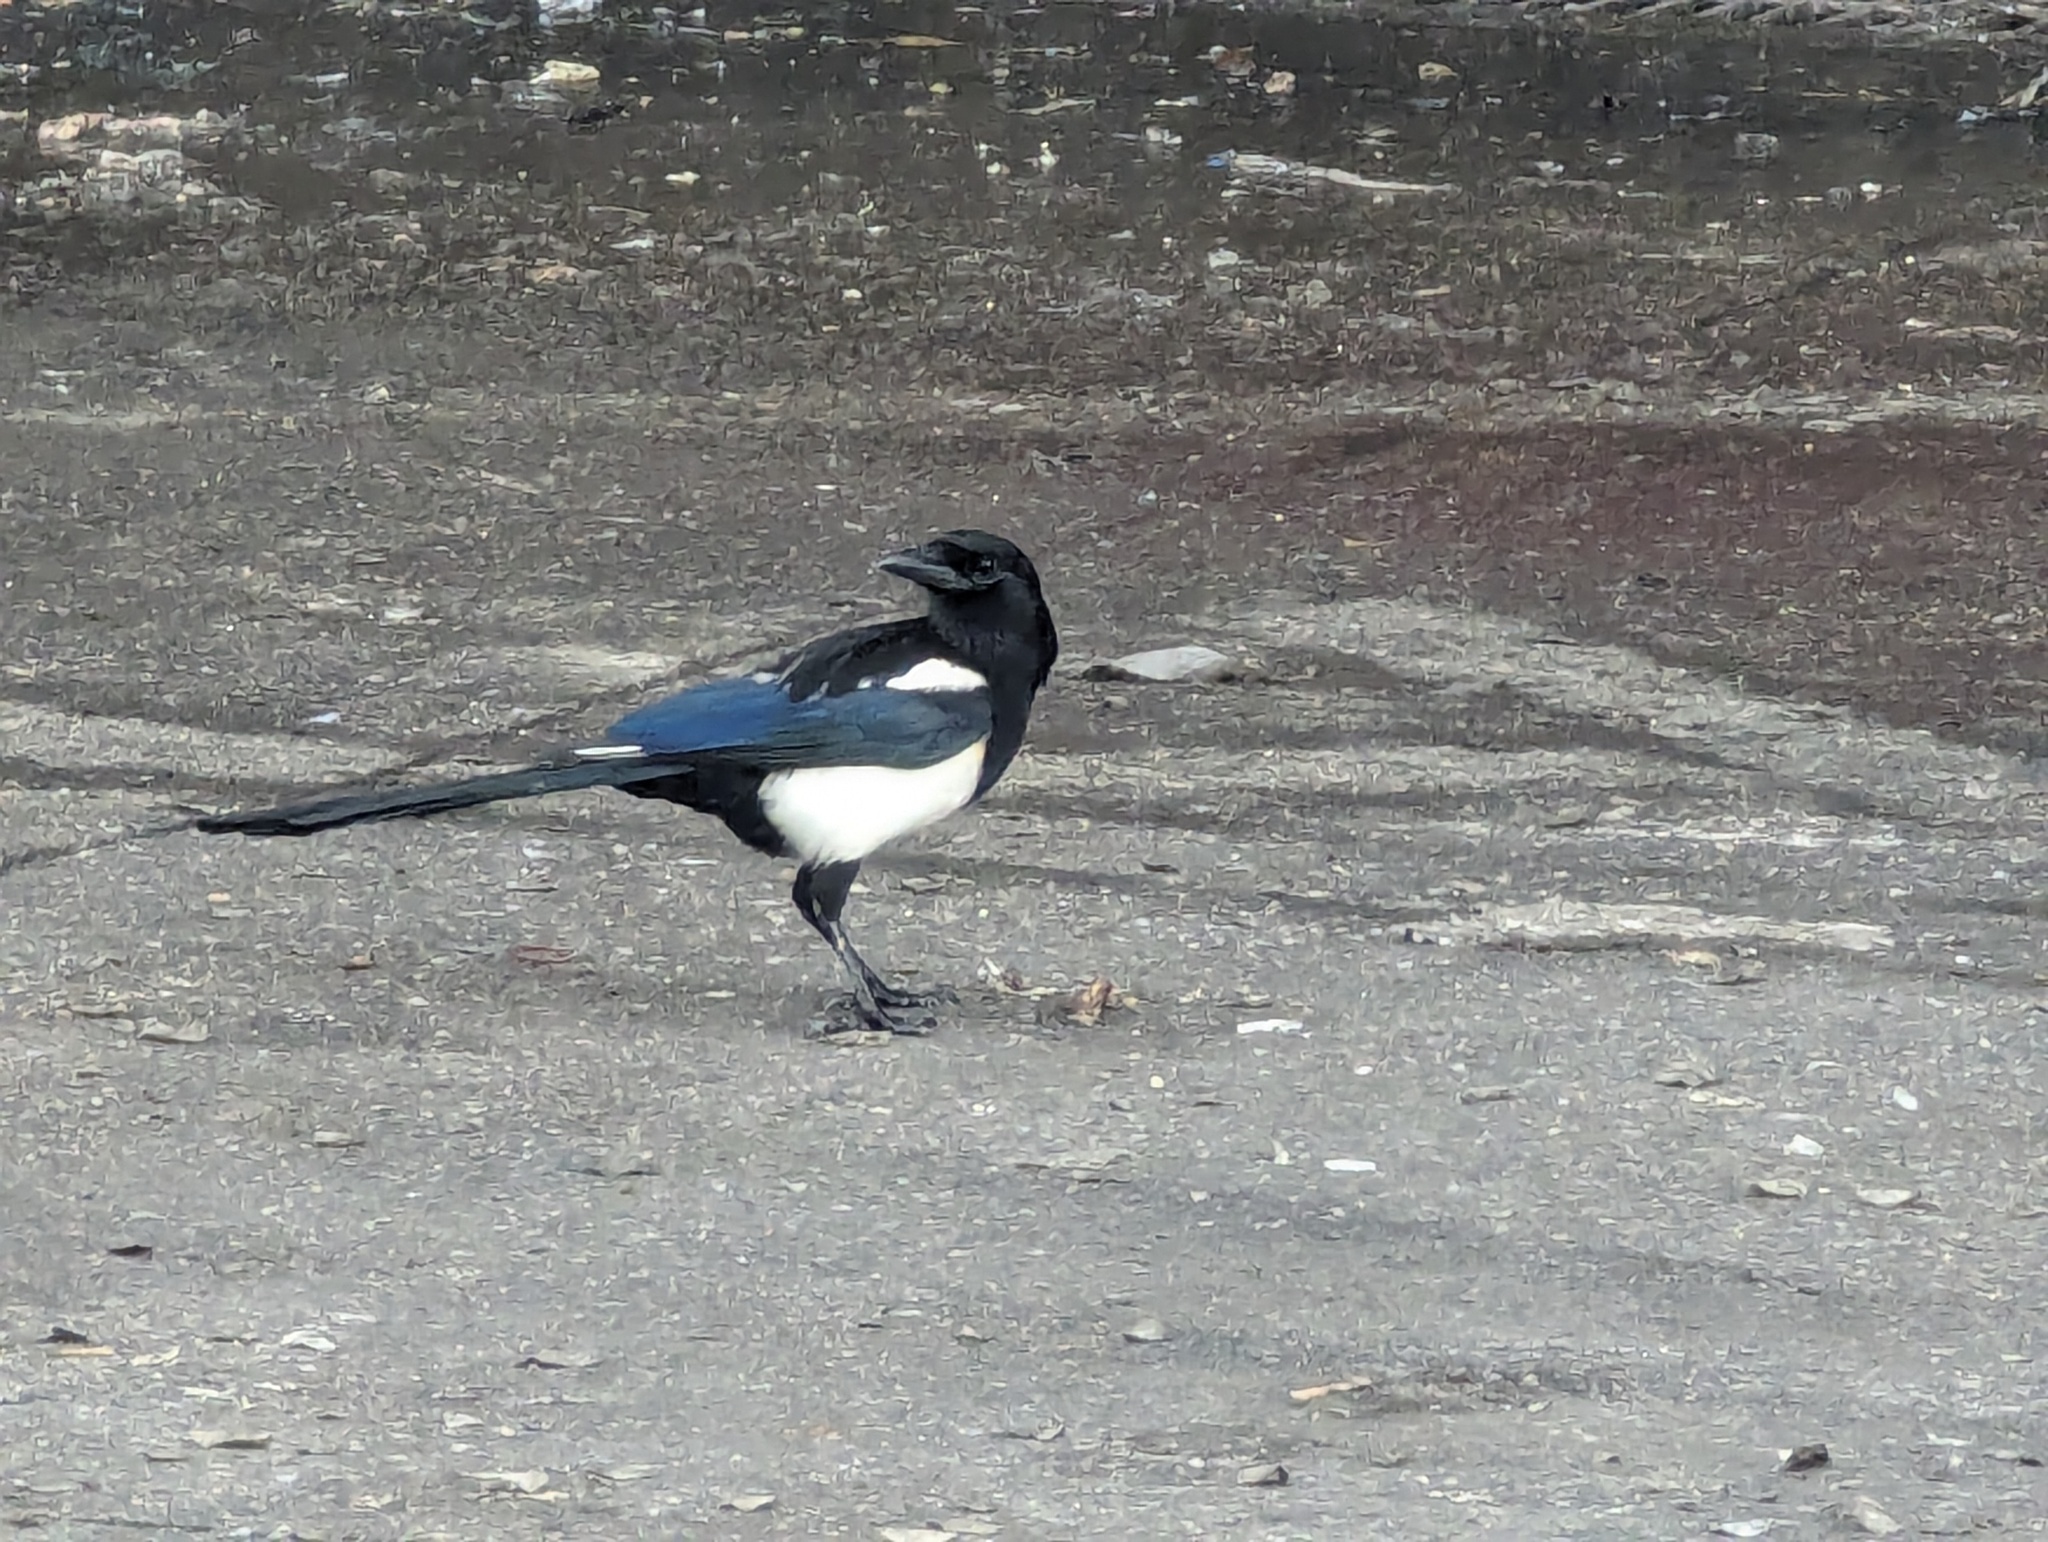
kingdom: Animalia
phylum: Chordata
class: Aves
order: Passeriformes
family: Corvidae
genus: Pica
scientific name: Pica serica
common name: Oriental magpie
